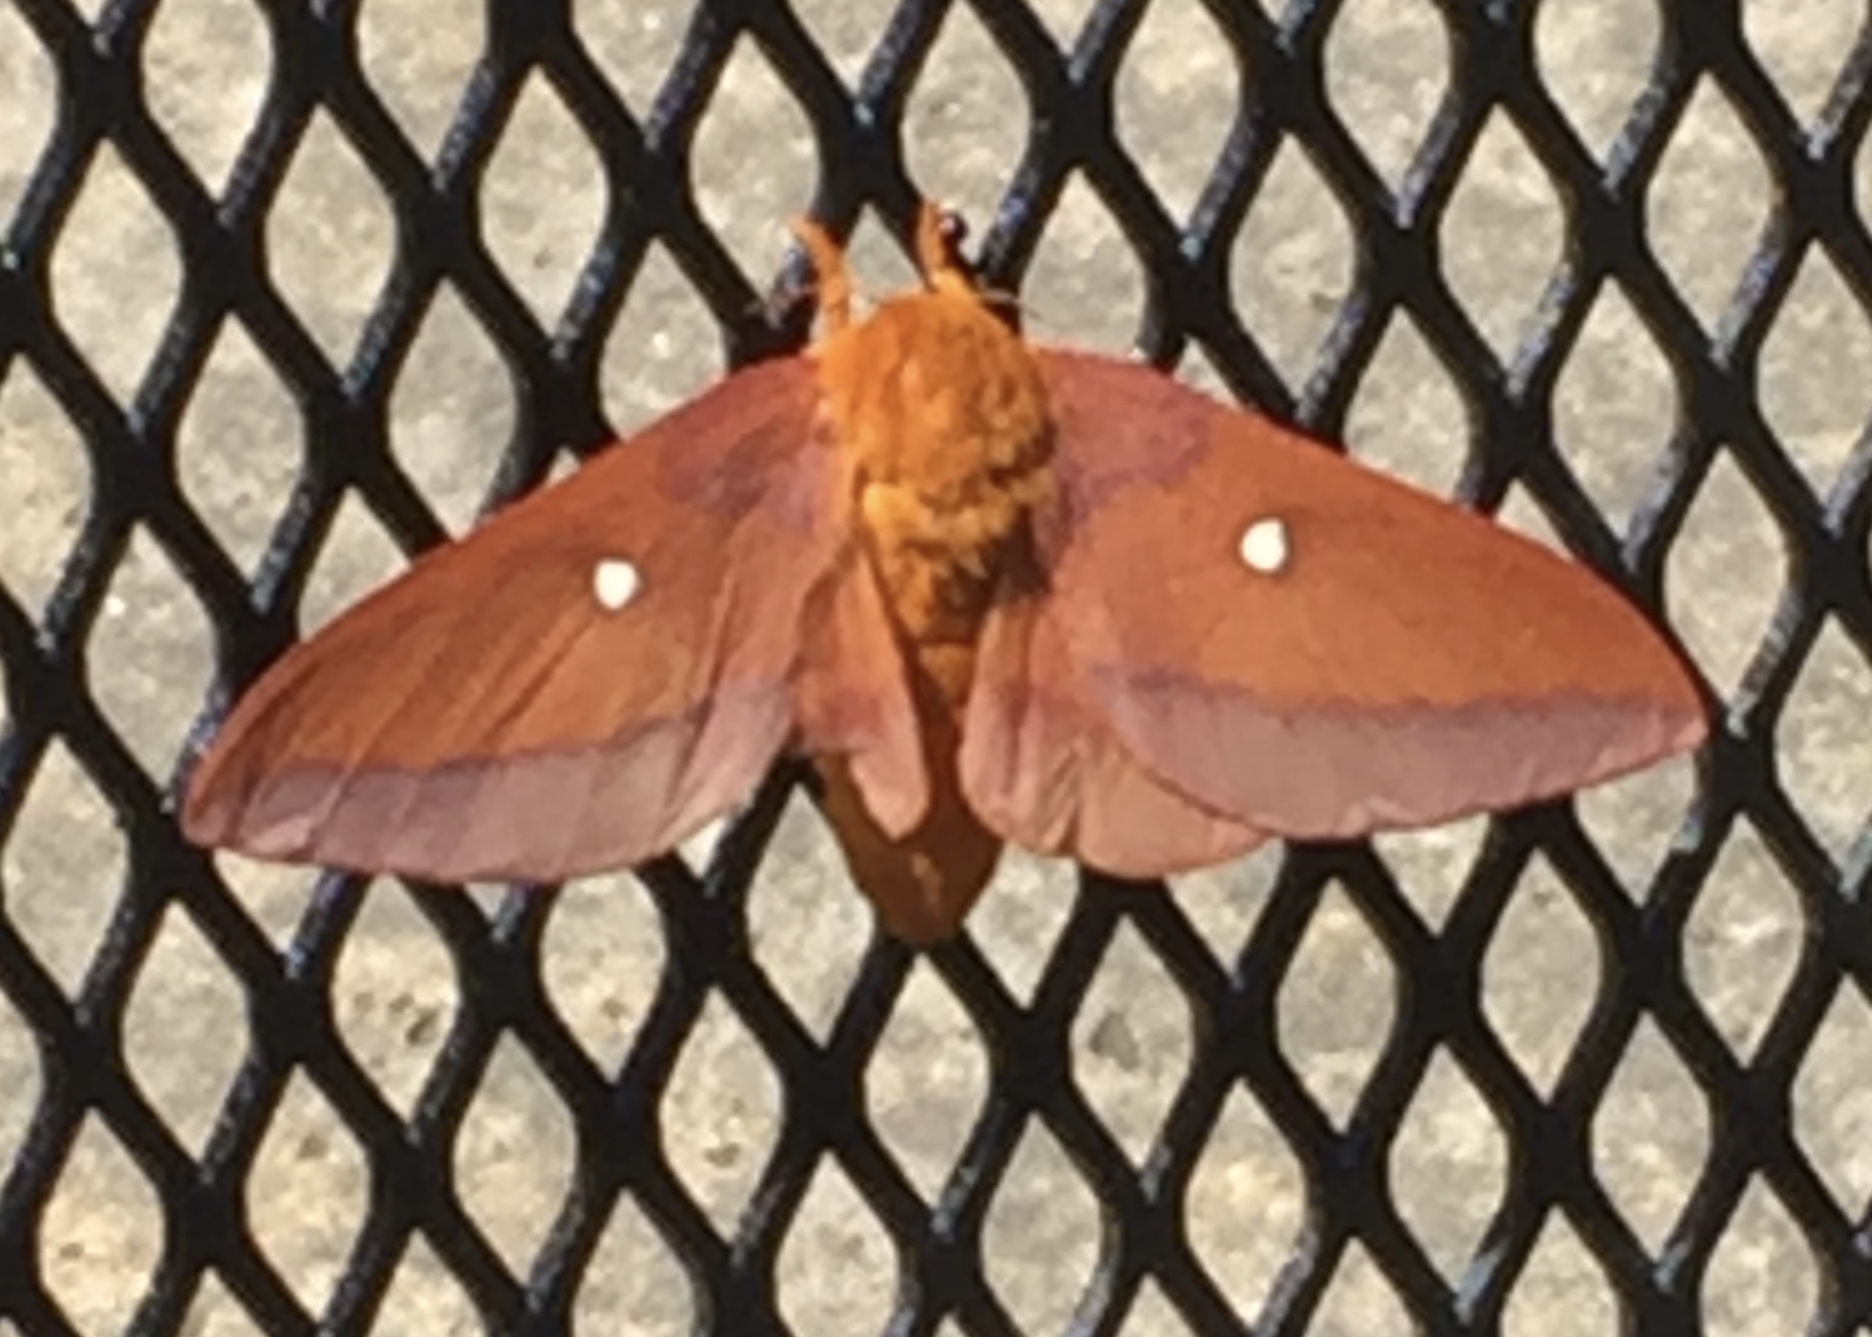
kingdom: Animalia
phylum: Arthropoda
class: Insecta
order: Lepidoptera
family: Saturniidae
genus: Anisota
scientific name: Anisota virginiensis
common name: Pink striped oakworm moth
